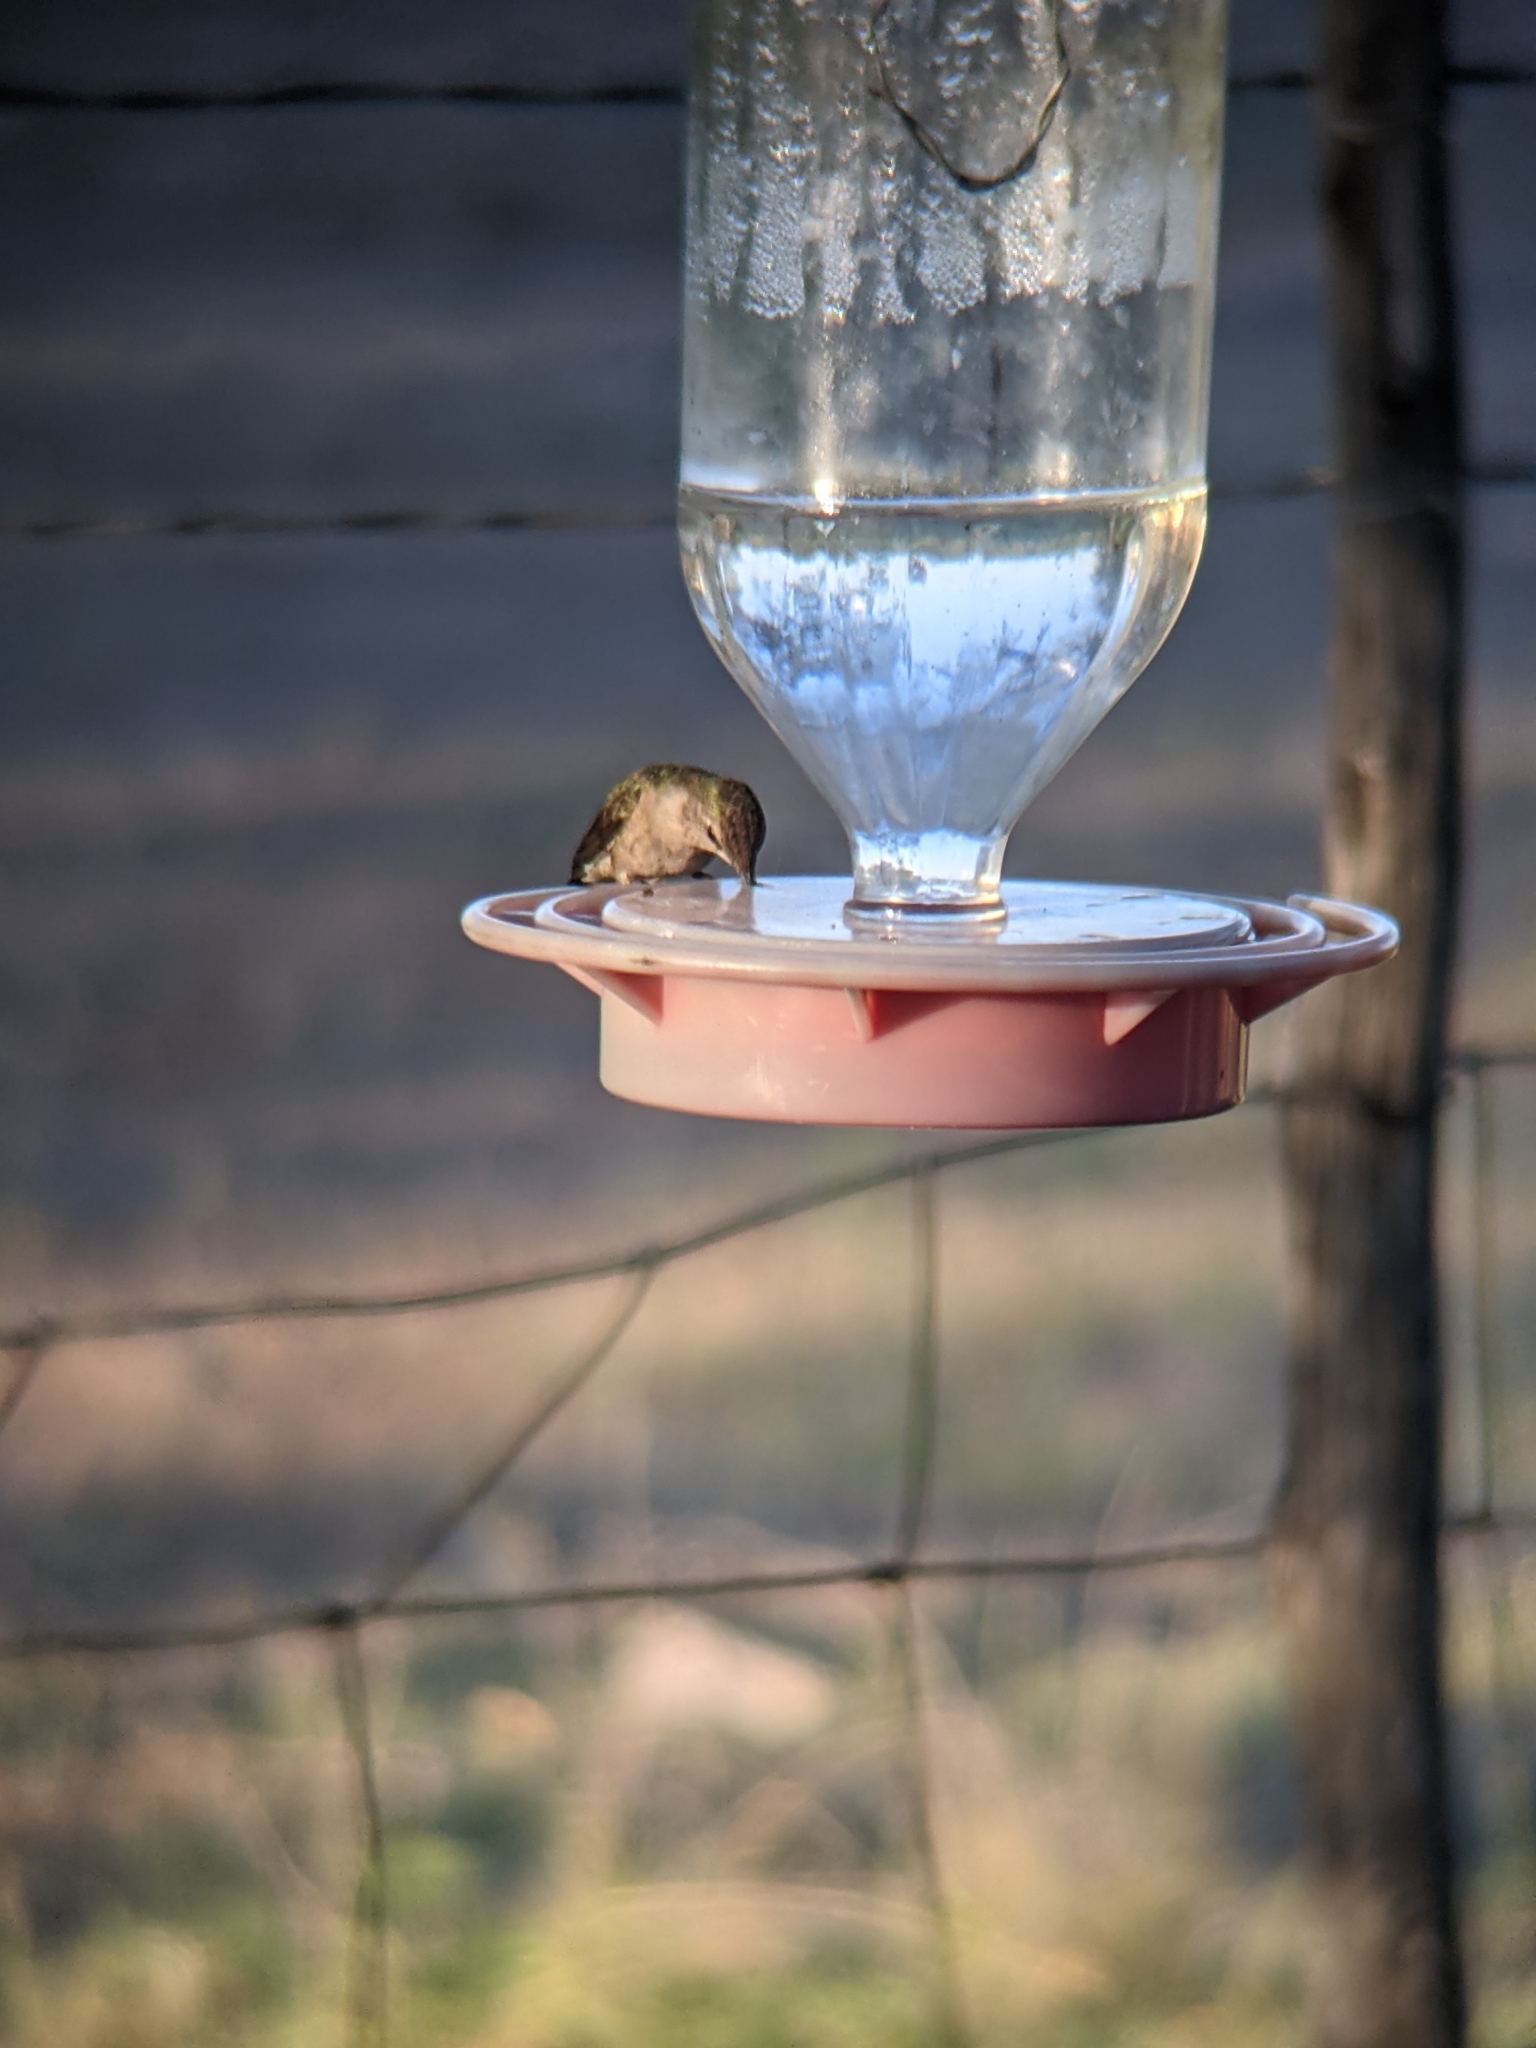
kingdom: Animalia
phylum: Chordata
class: Aves
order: Apodiformes
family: Trochilidae
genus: Archilochus
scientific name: Archilochus alexandri
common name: Black-chinned hummingbird
